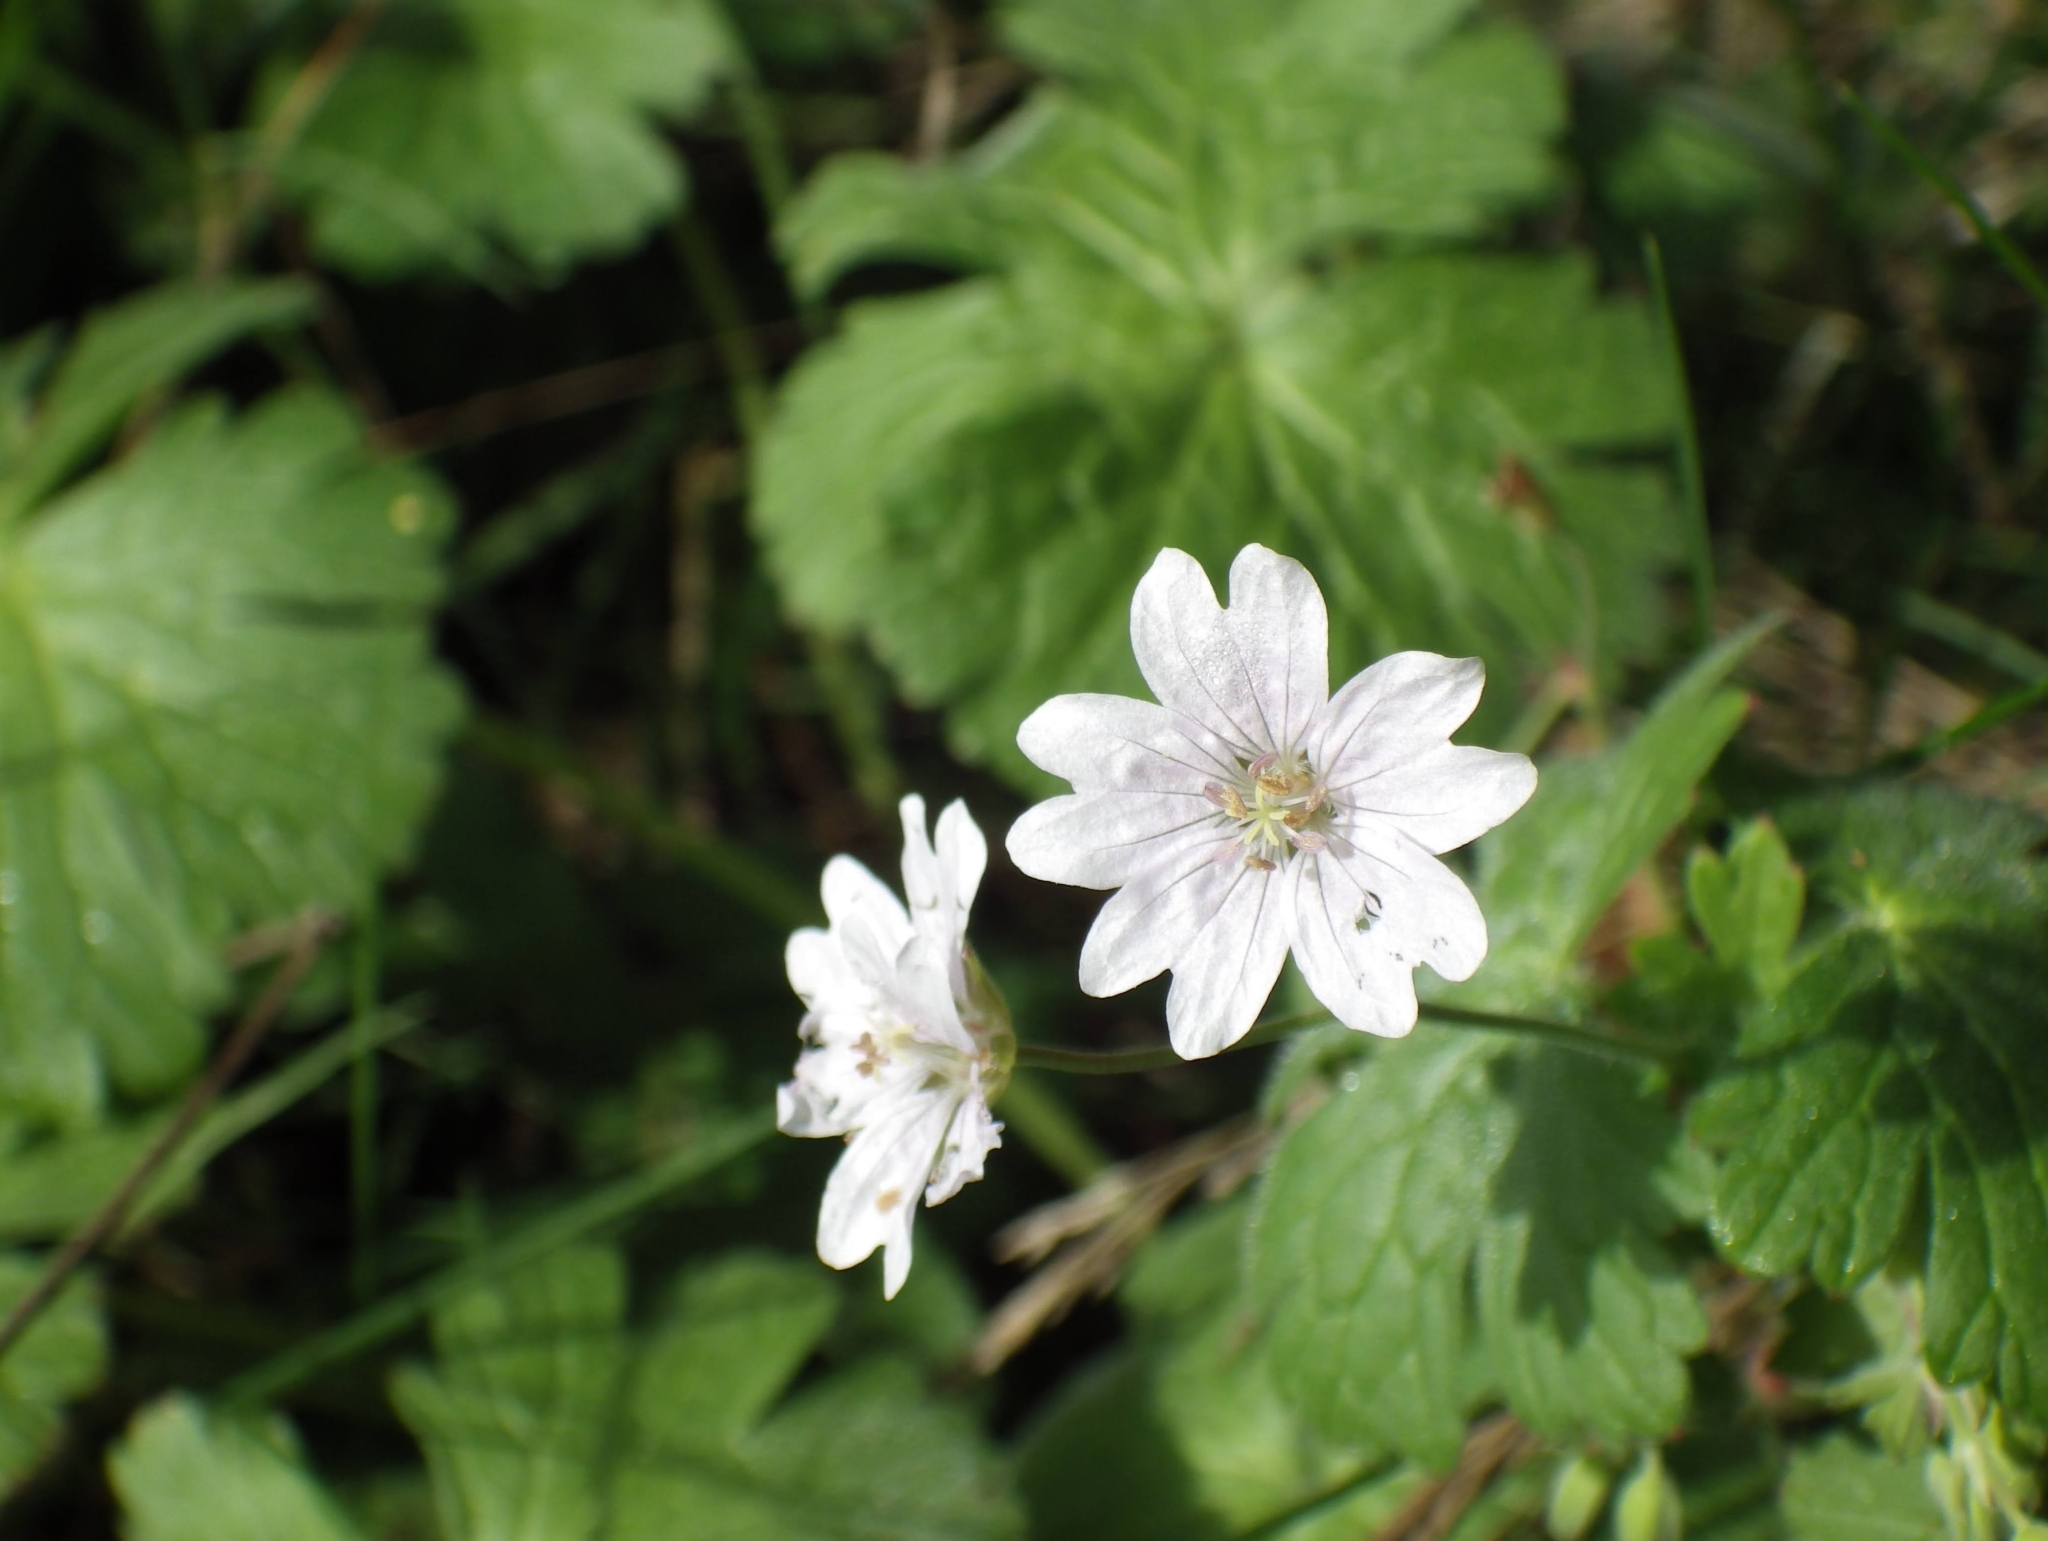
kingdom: Plantae
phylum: Tracheophyta
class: Magnoliopsida
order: Geraniales
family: Geraniaceae
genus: Geranium
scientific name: Geranium pyrenaicum
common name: Hedgerow crane's-bill
